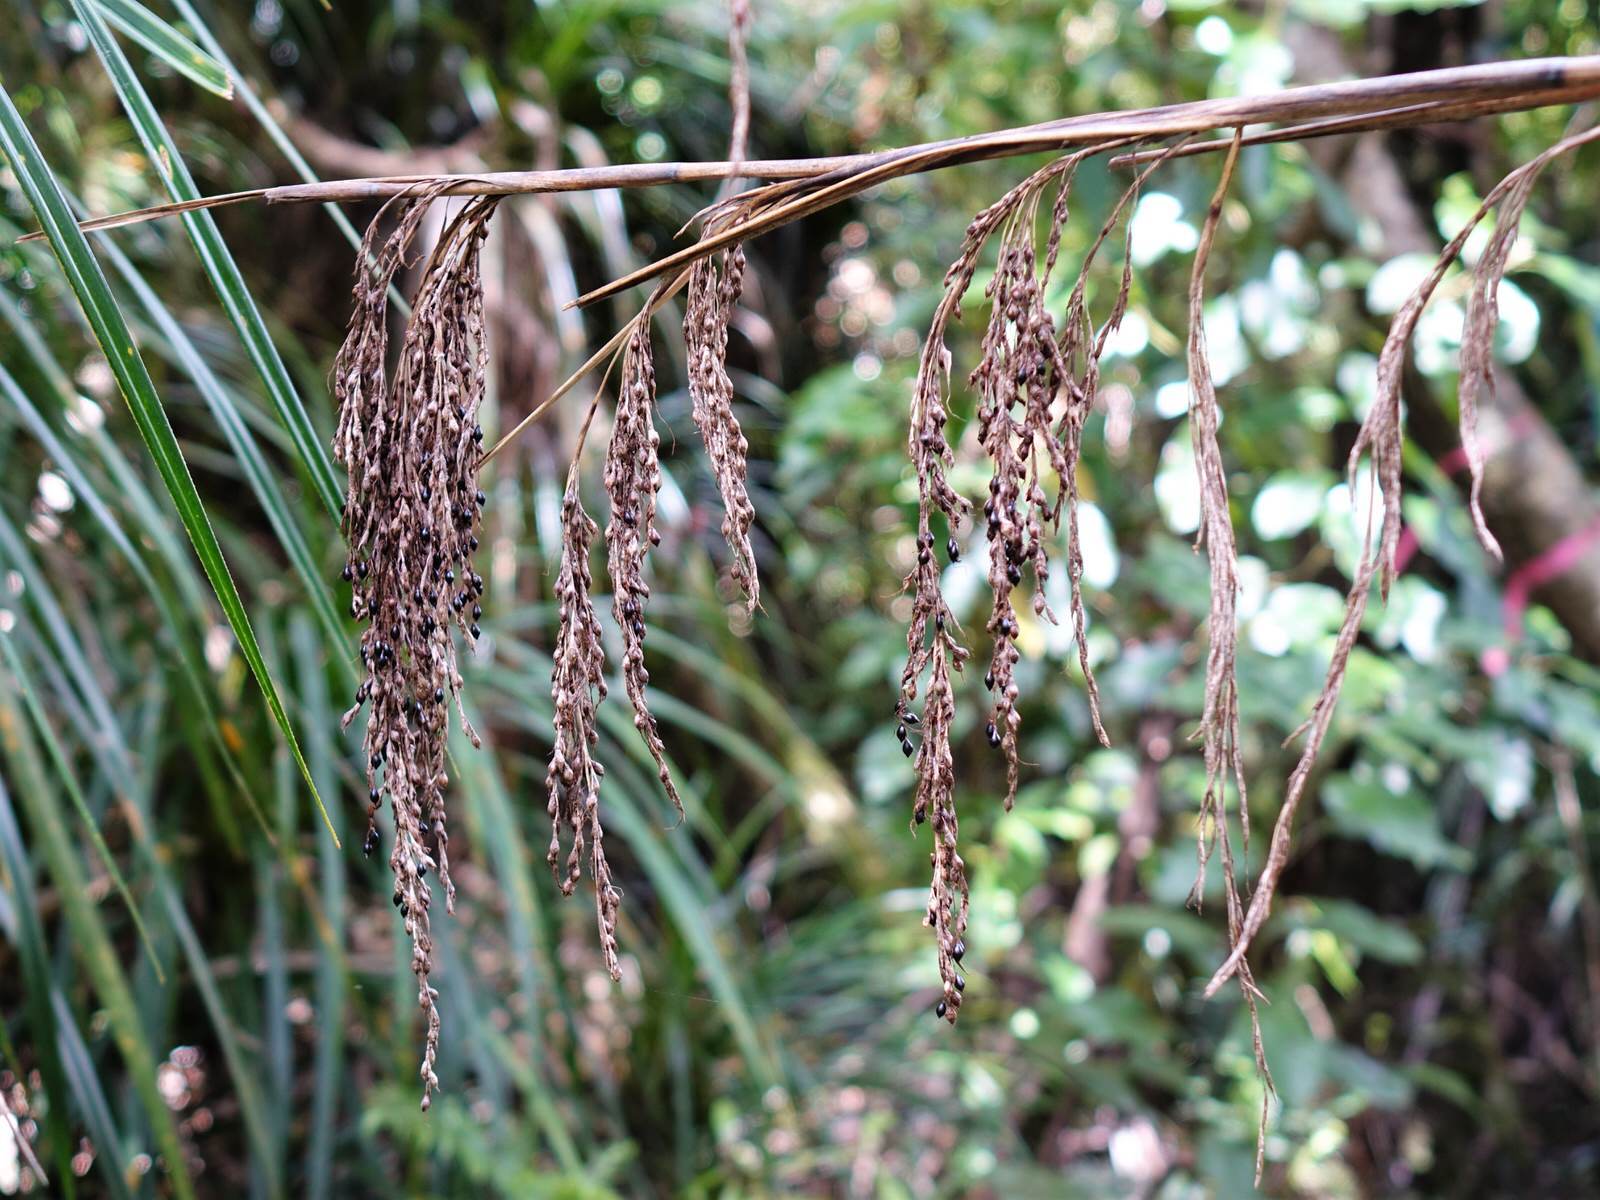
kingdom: Plantae
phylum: Tracheophyta
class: Liliopsida
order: Poales
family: Cyperaceae
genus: Gahnia
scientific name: Gahnia xanthocarpa
